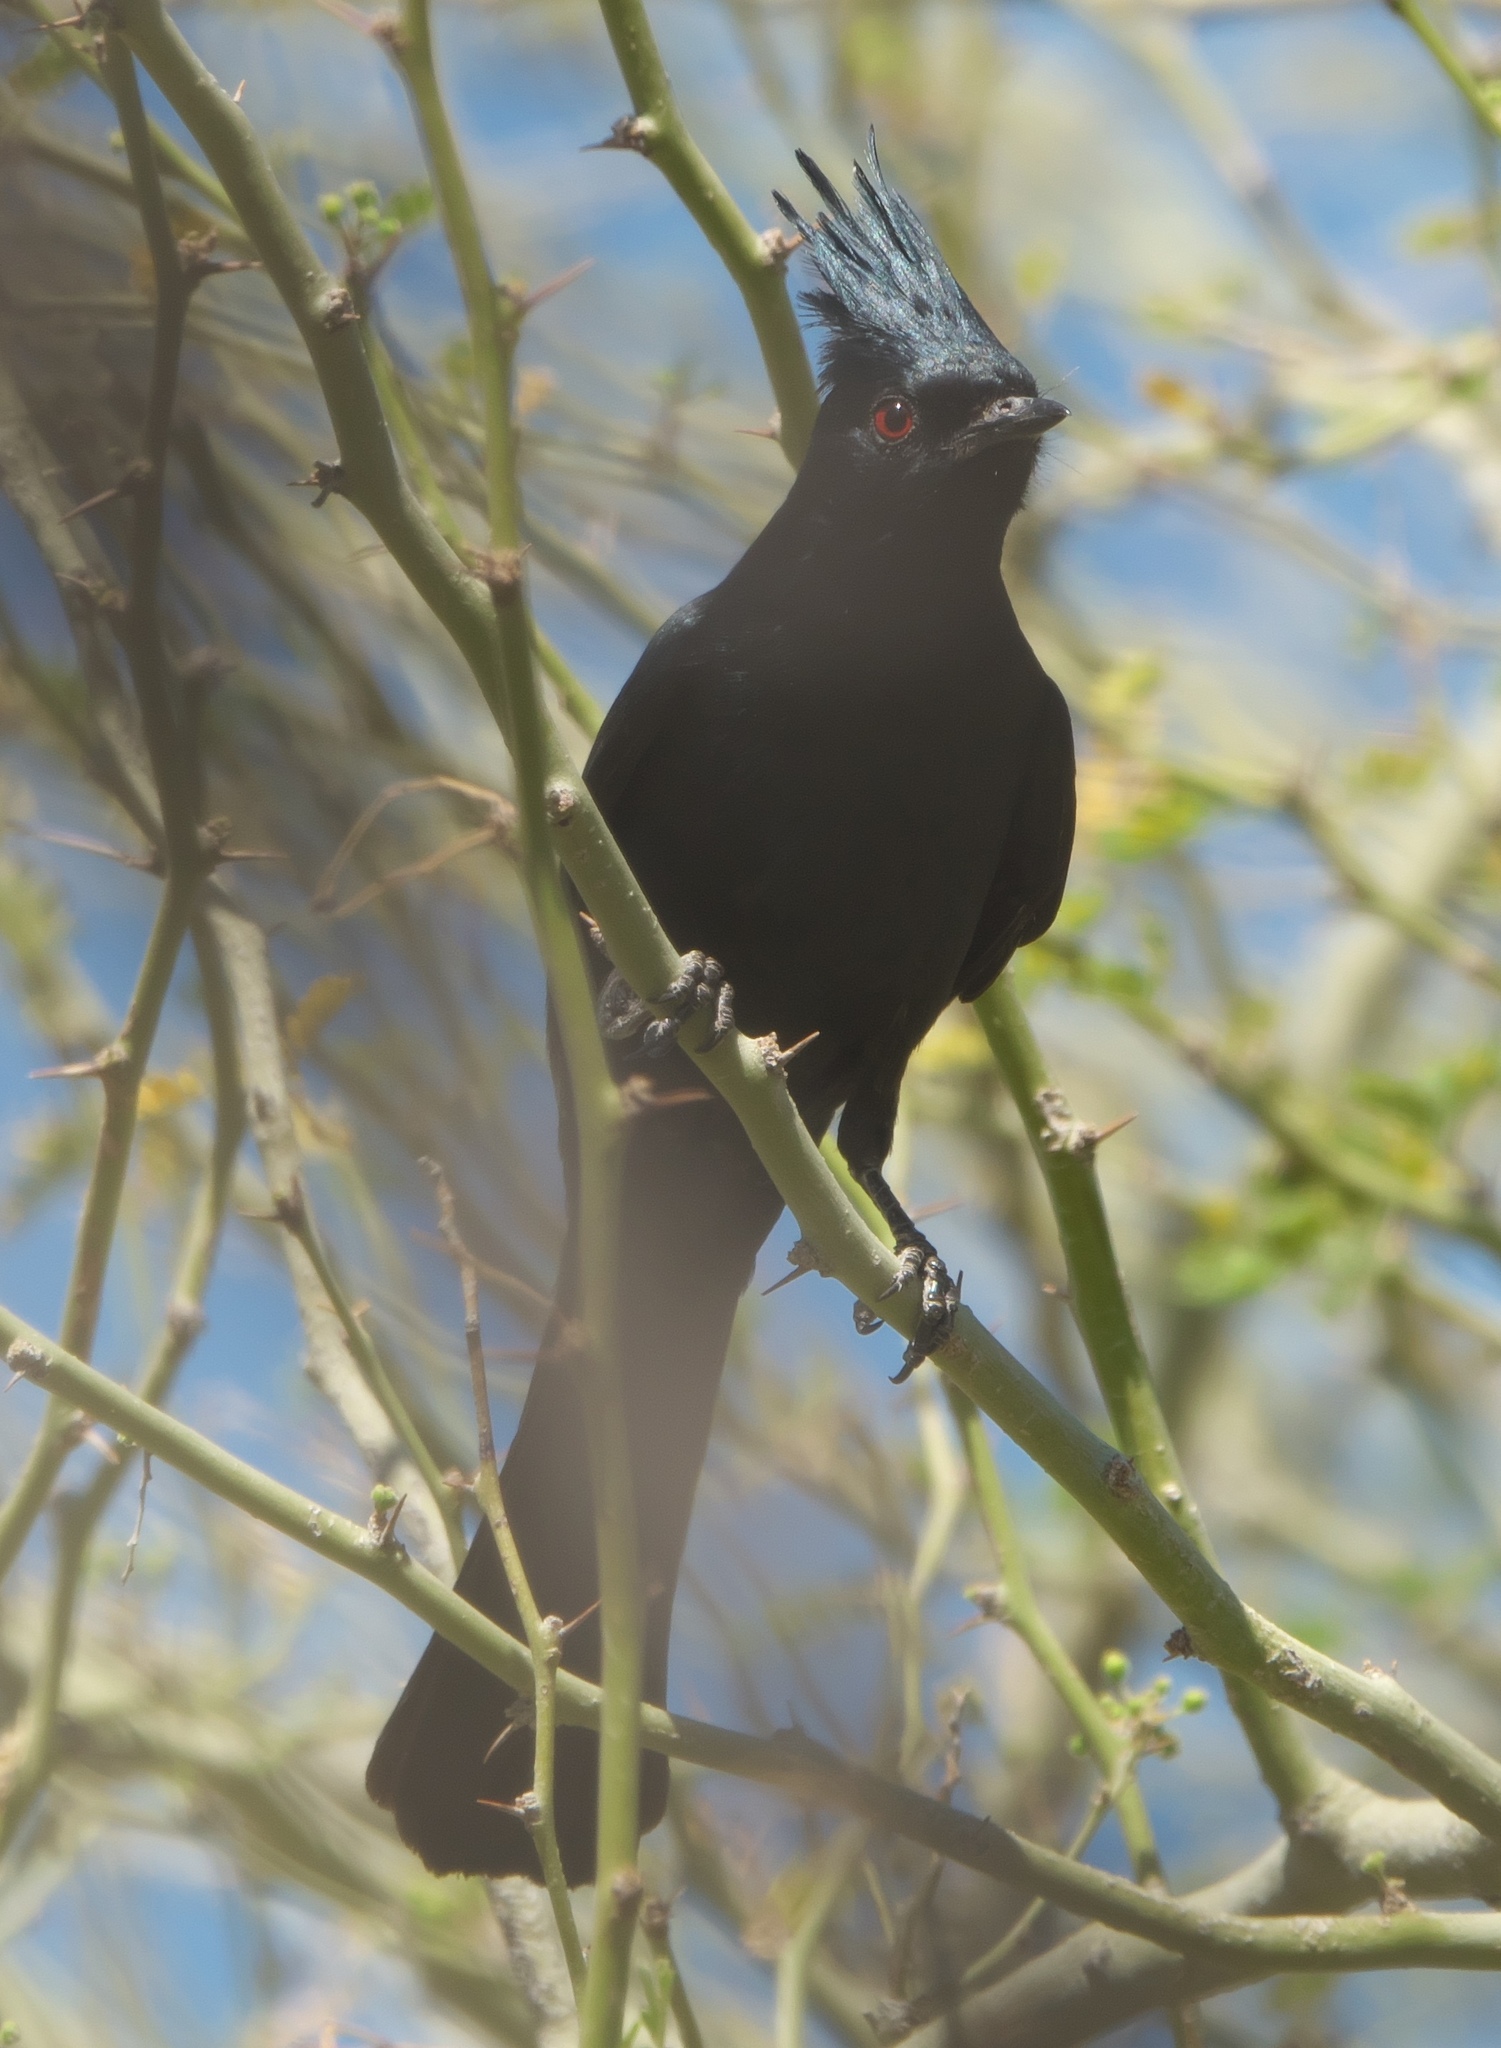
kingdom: Animalia
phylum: Chordata
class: Aves
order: Passeriformes
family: Ptilogonatidae
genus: Phainopepla
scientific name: Phainopepla nitens
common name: Phainopepla
